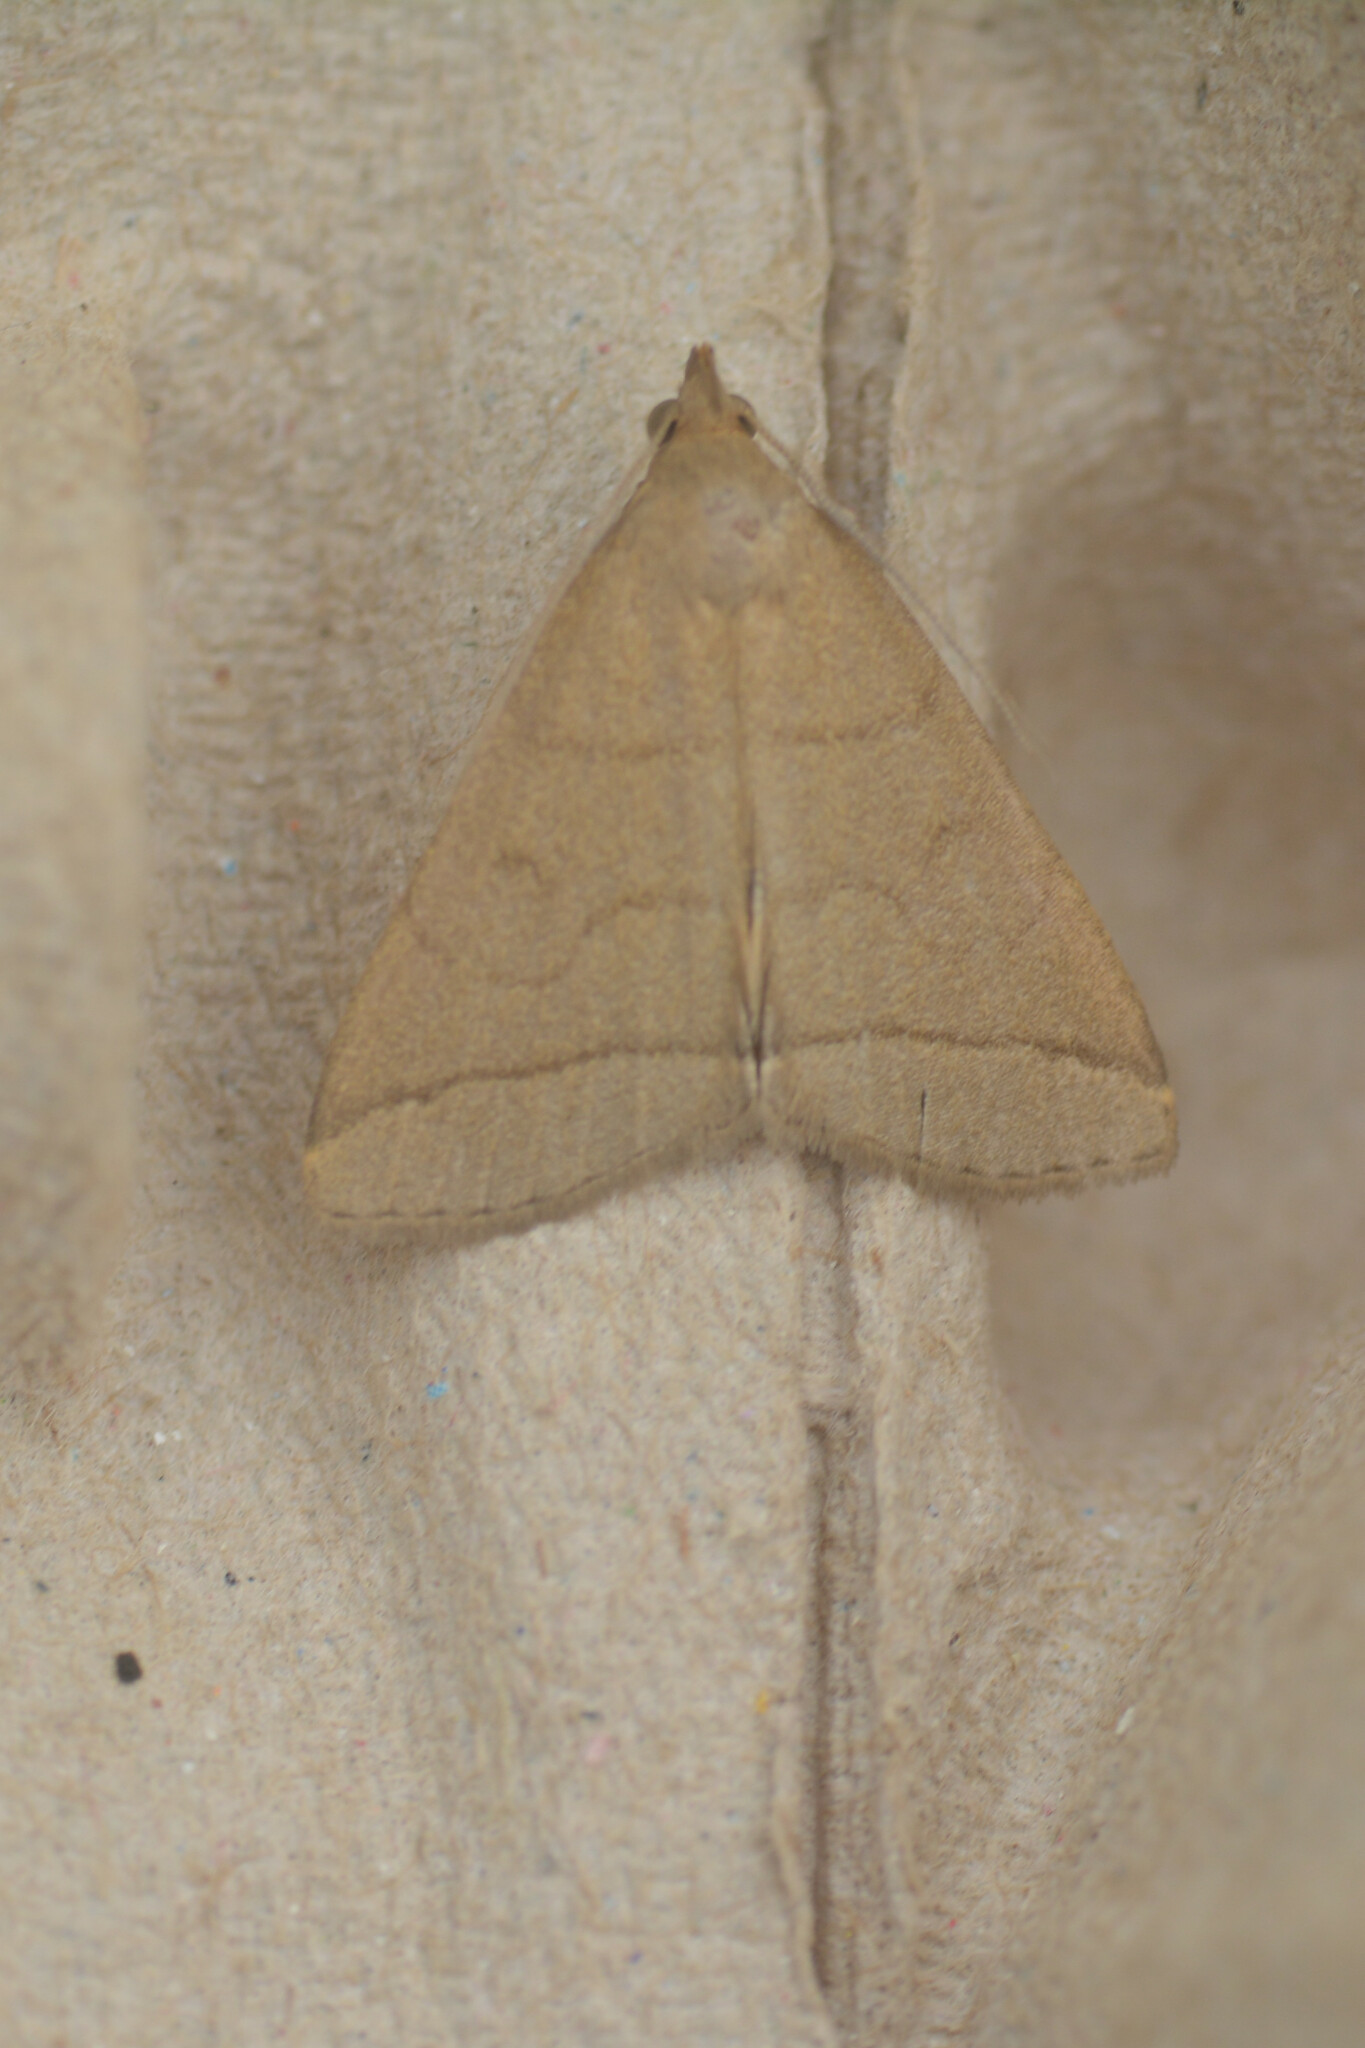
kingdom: Animalia
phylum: Arthropoda
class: Insecta
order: Lepidoptera
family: Erebidae
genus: Herminia
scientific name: Herminia tarsipennalis
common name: Fan-foot
